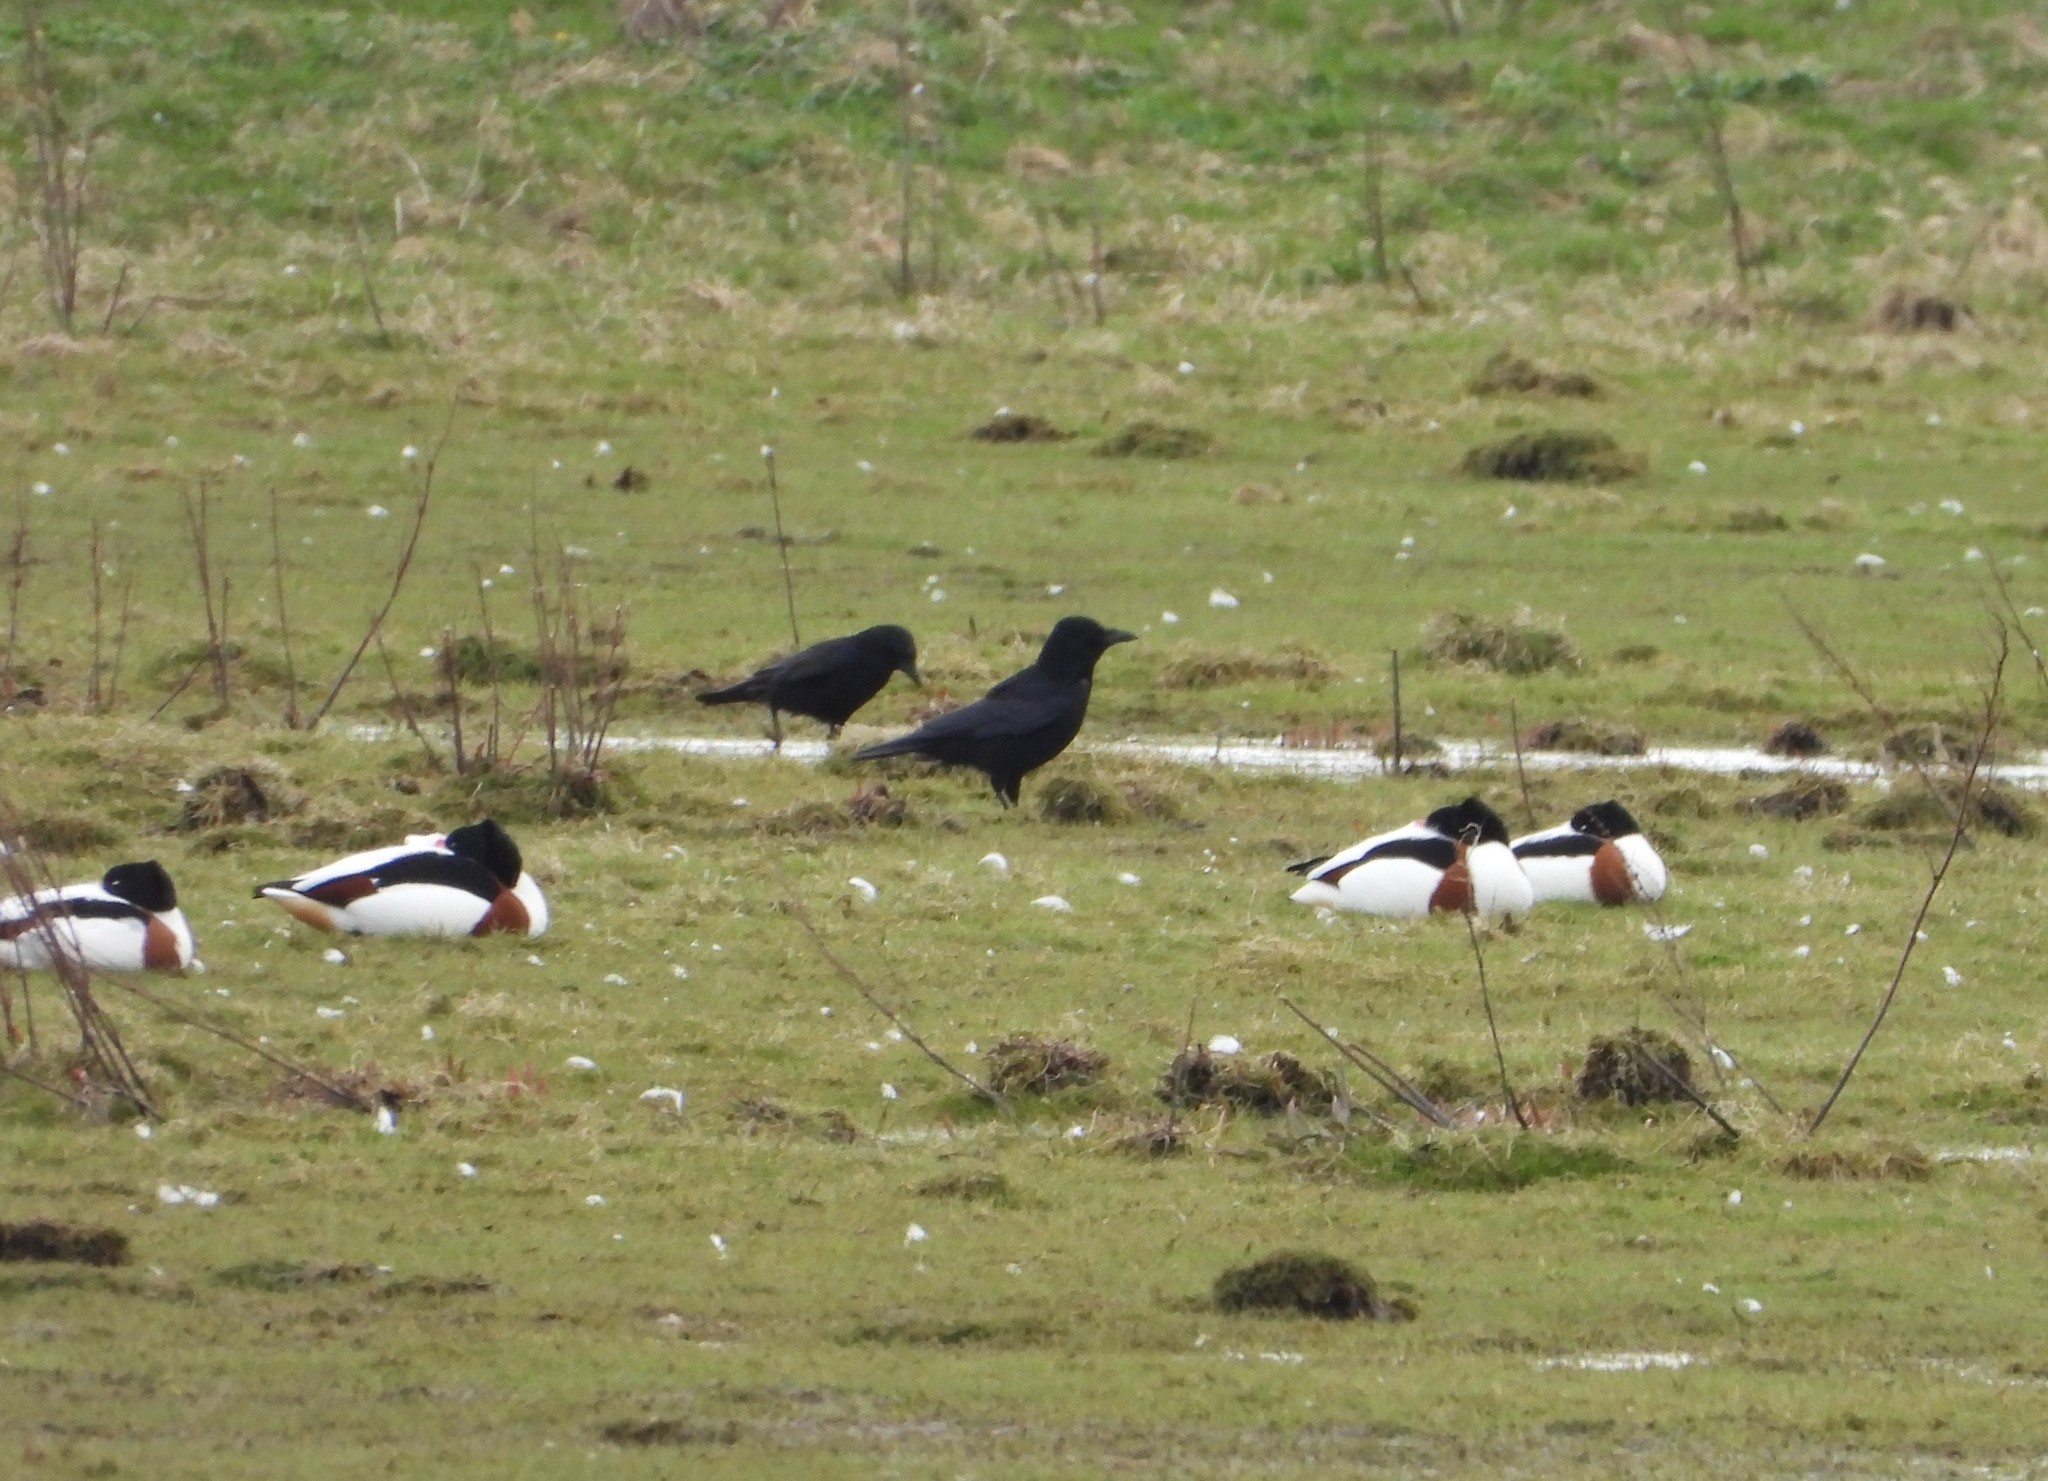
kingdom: Animalia
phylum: Chordata
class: Aves
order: Passeriformes
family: Corvidae
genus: Corvus
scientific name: Corvus corone
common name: Carrion crow
